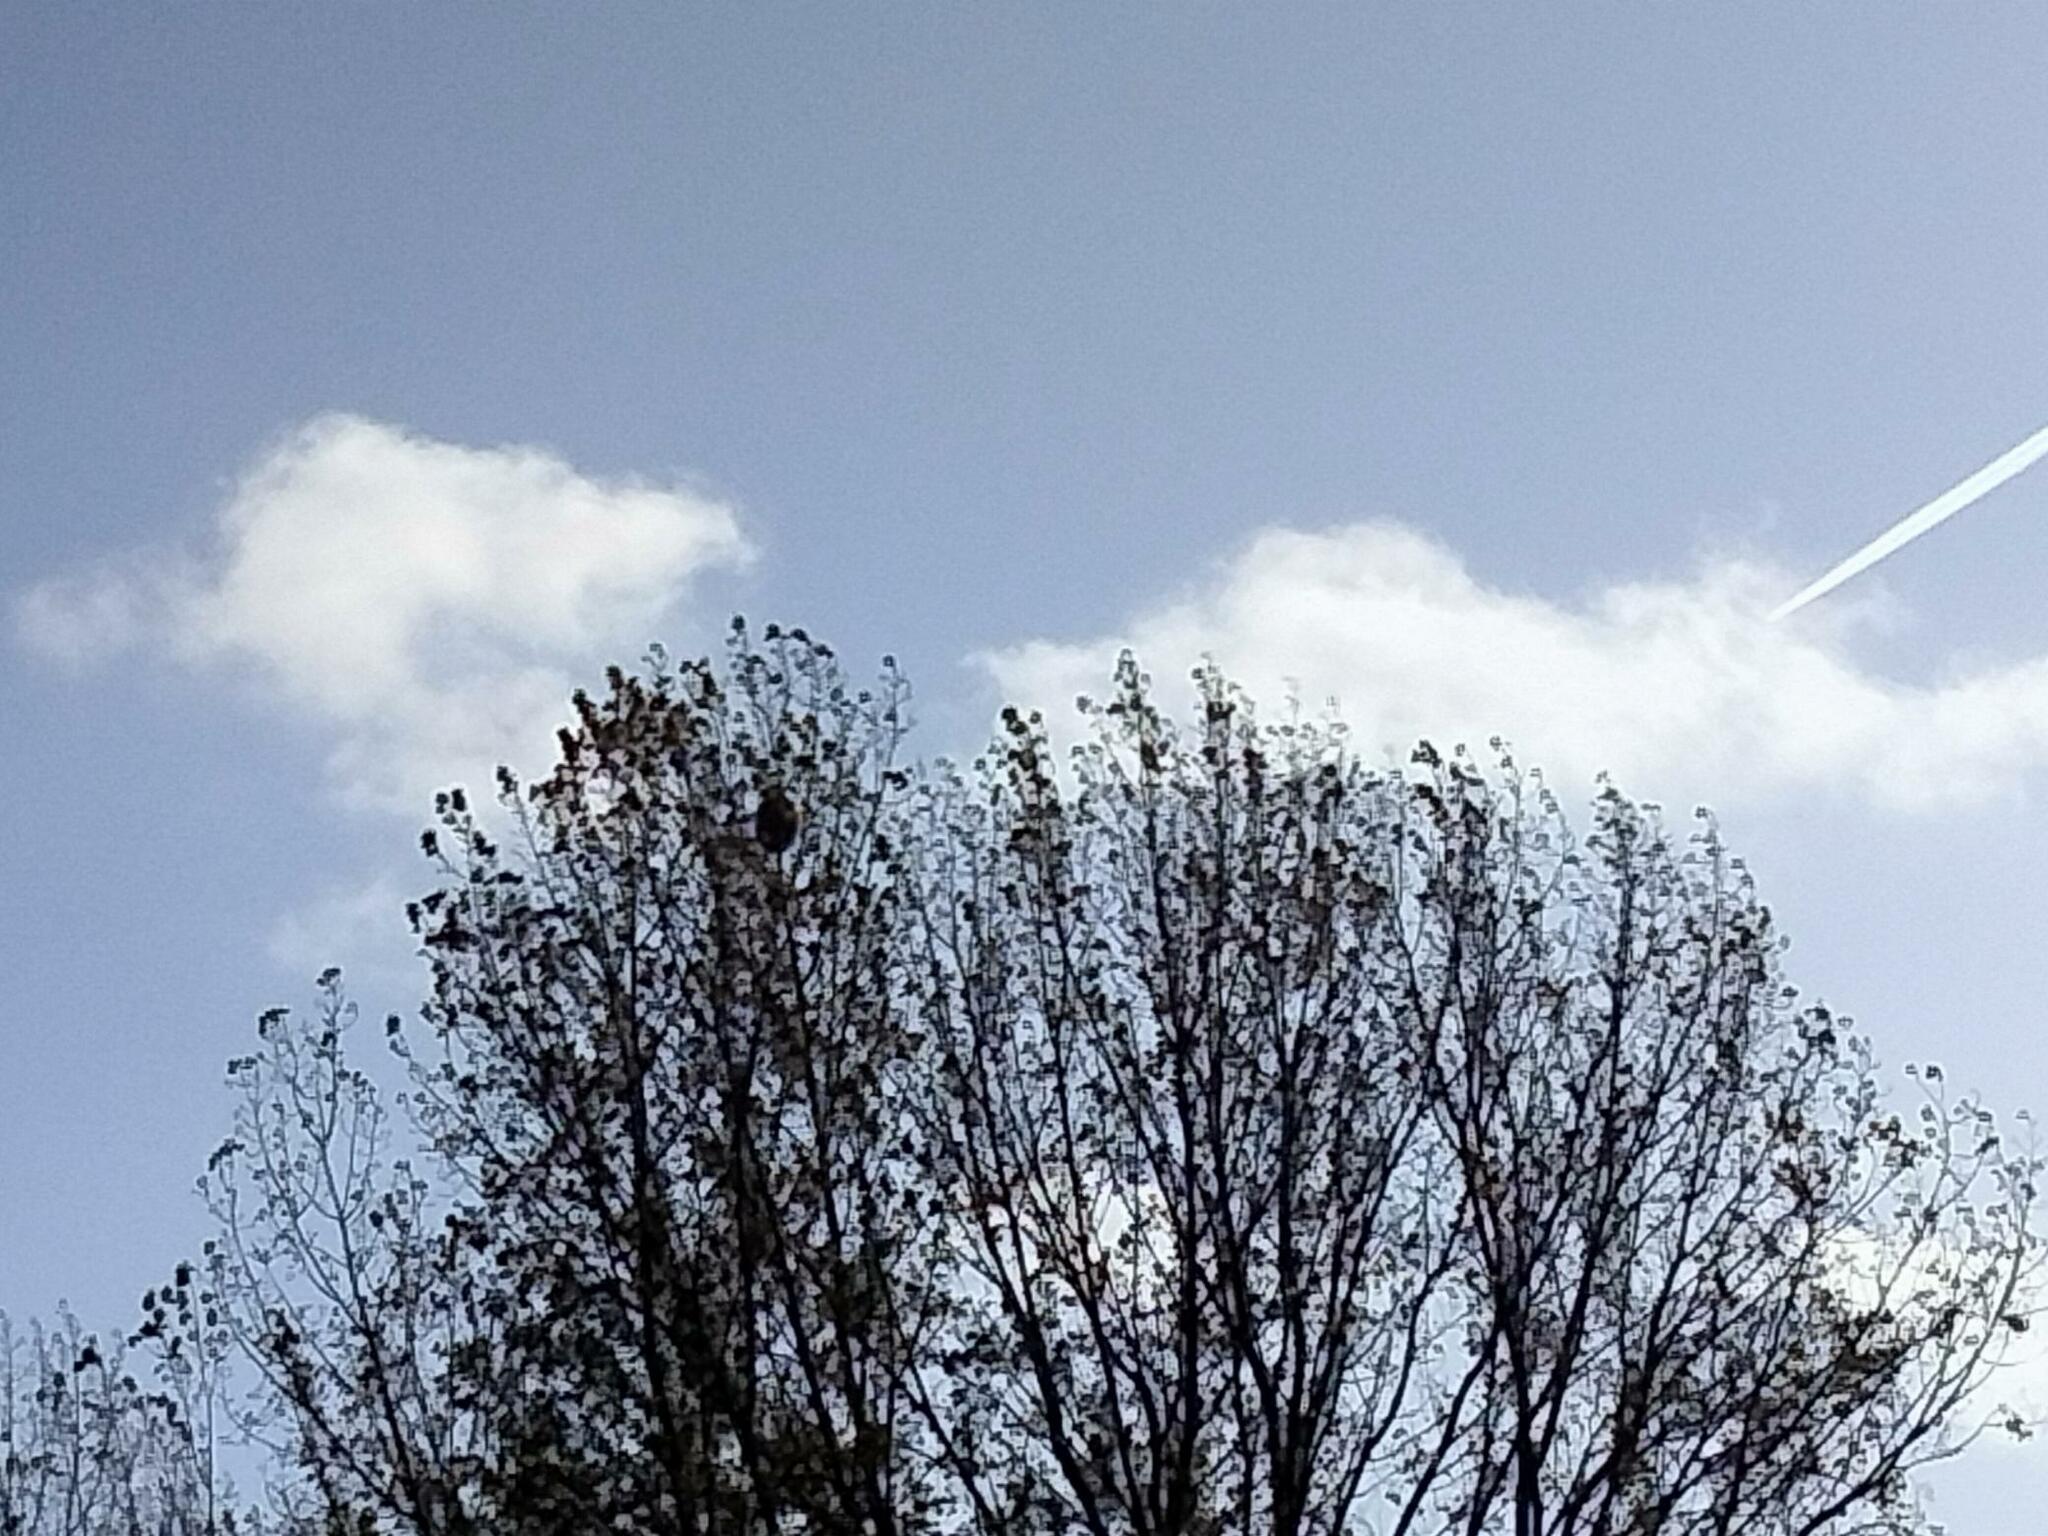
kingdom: Animalia
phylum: Arthropoda
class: Insecta
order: Hymenoptera
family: Vespidae
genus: Vespa
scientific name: Vespa velutina
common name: Asian hornet
